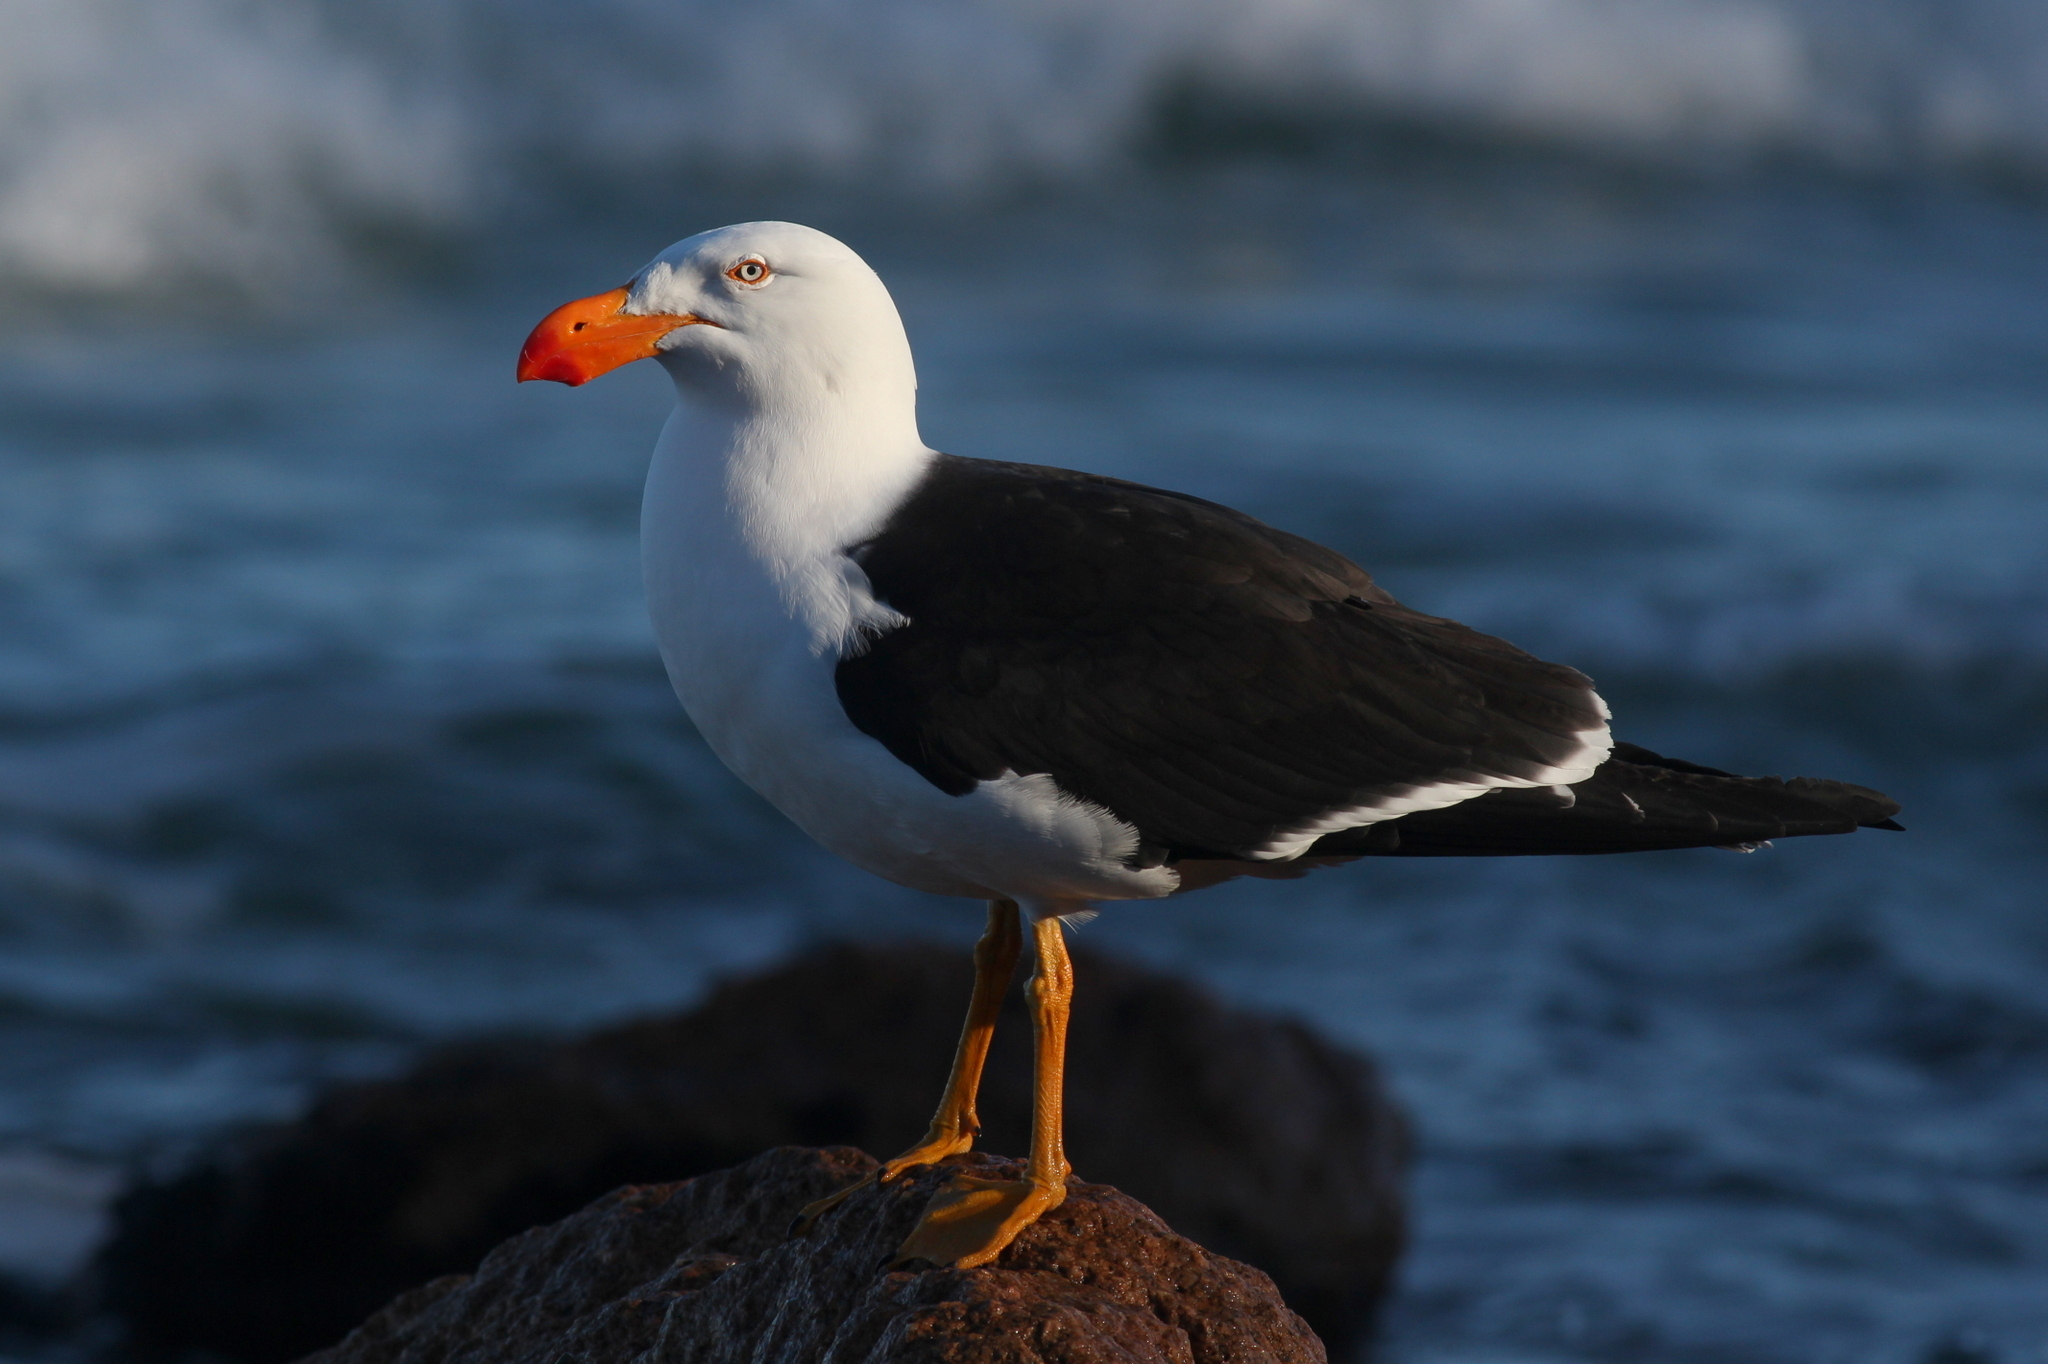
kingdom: Animalia
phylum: Chordata
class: Aves
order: Charadriiformes
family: Laridae
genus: Larus
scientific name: Larus pacificus
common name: Pacific gull
